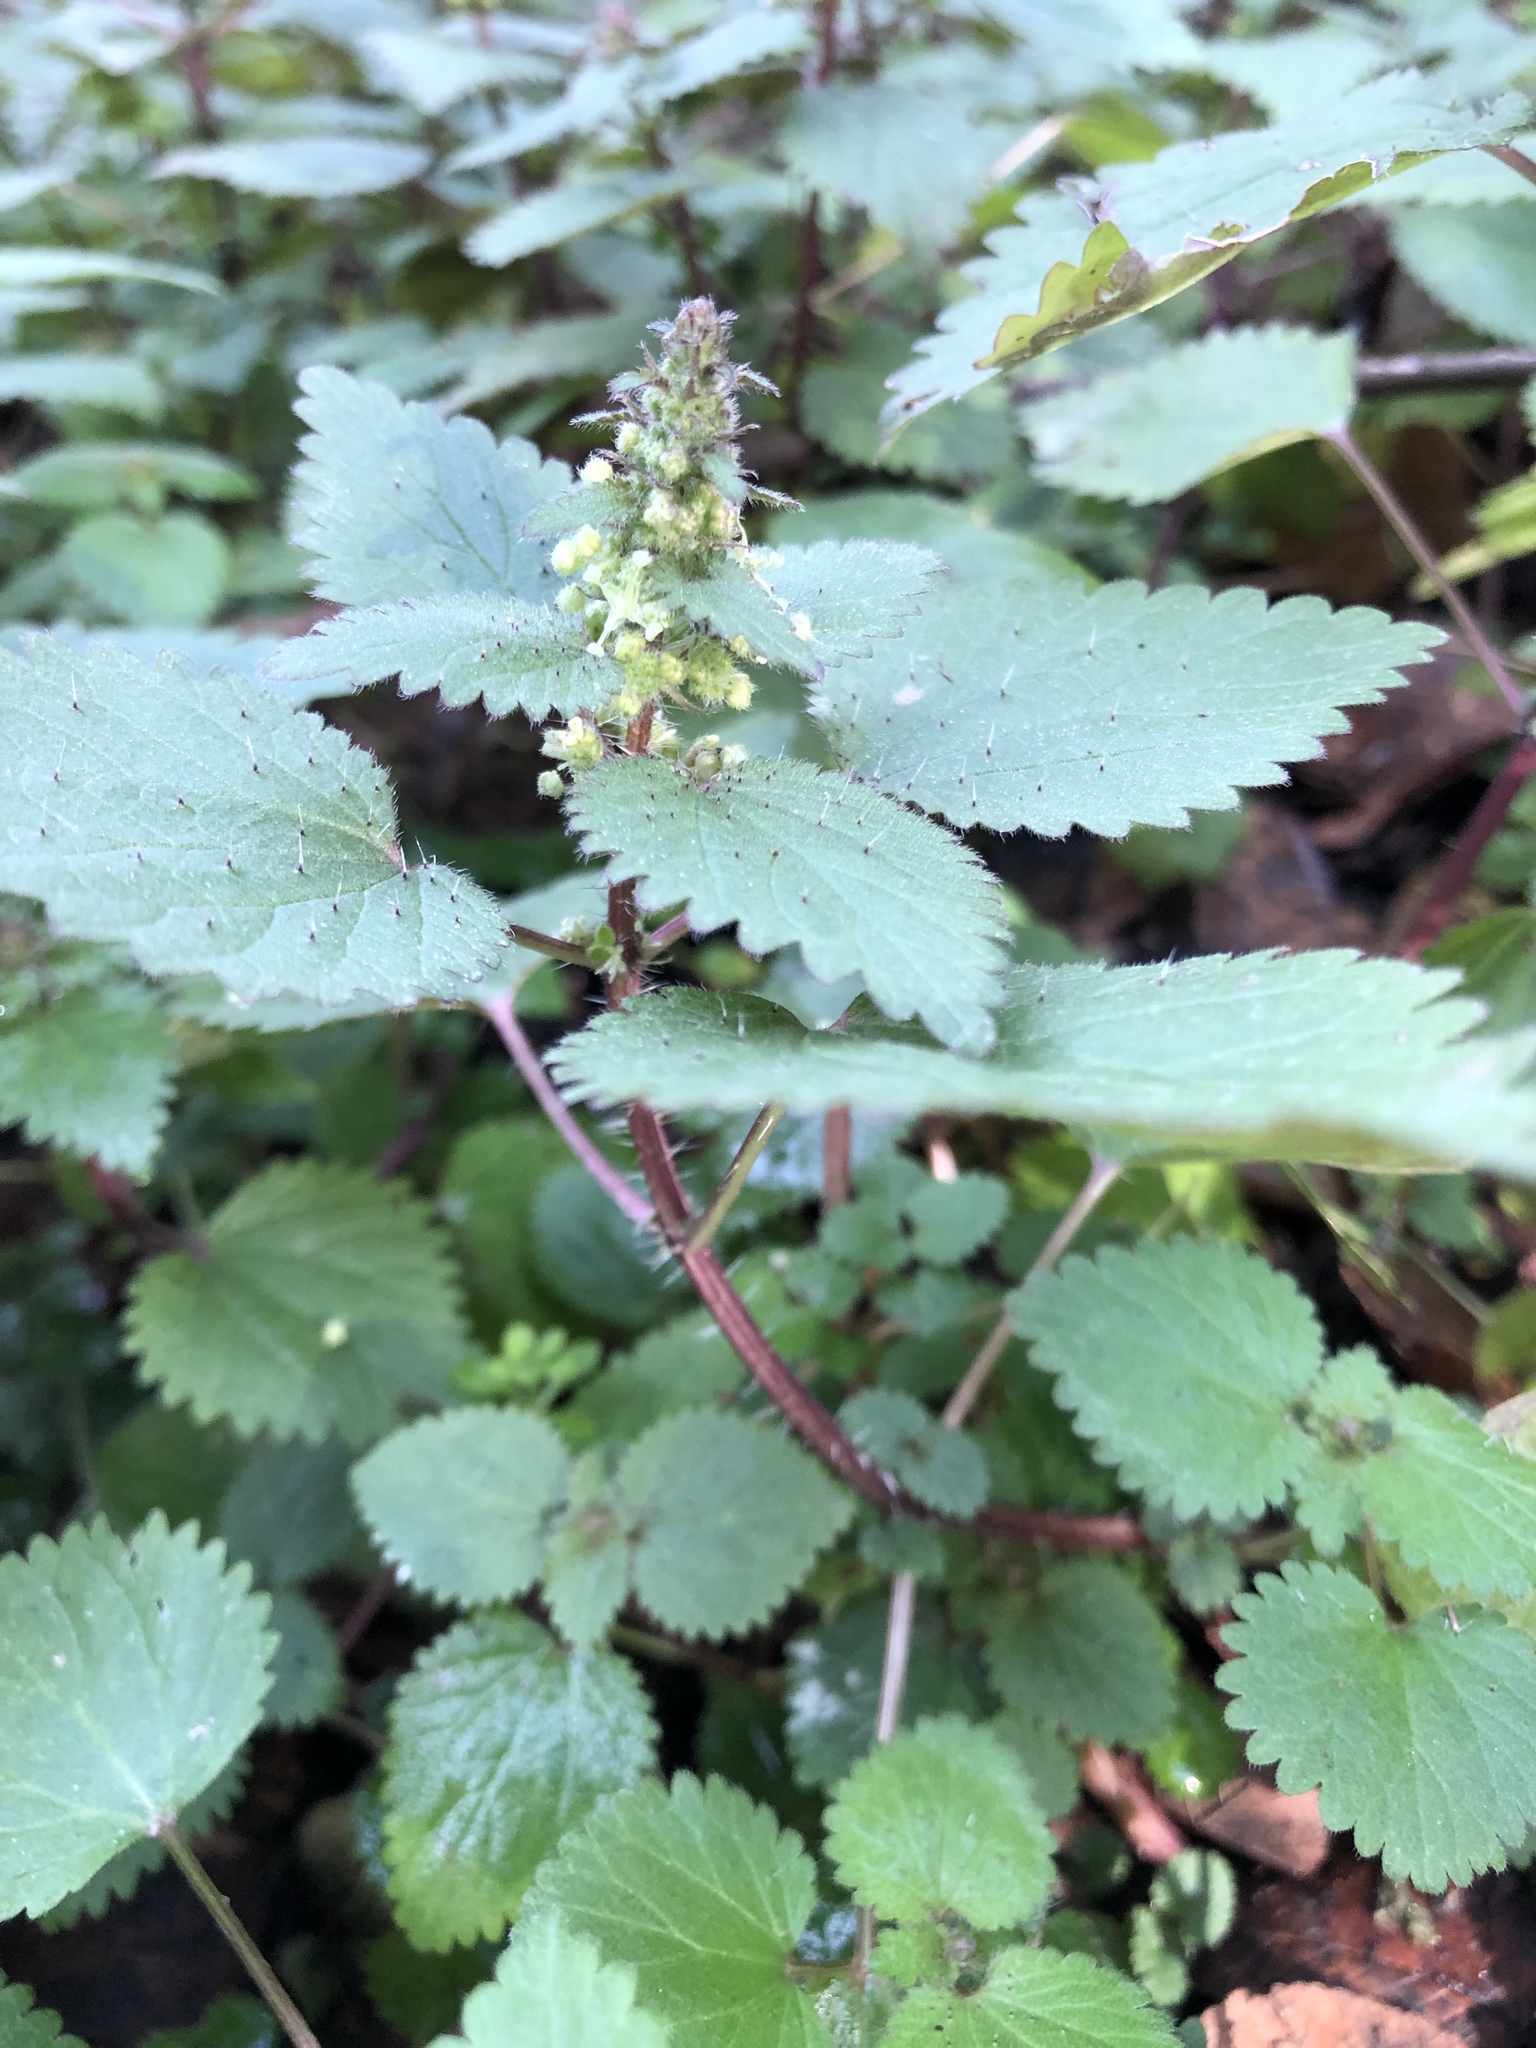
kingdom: Plantae
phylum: Tracheophyta
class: Magnoliopsida
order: Rosales
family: Urticaceae
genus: Urtica
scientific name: Urtica chamaedryoides
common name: Heart-leaf nettle
